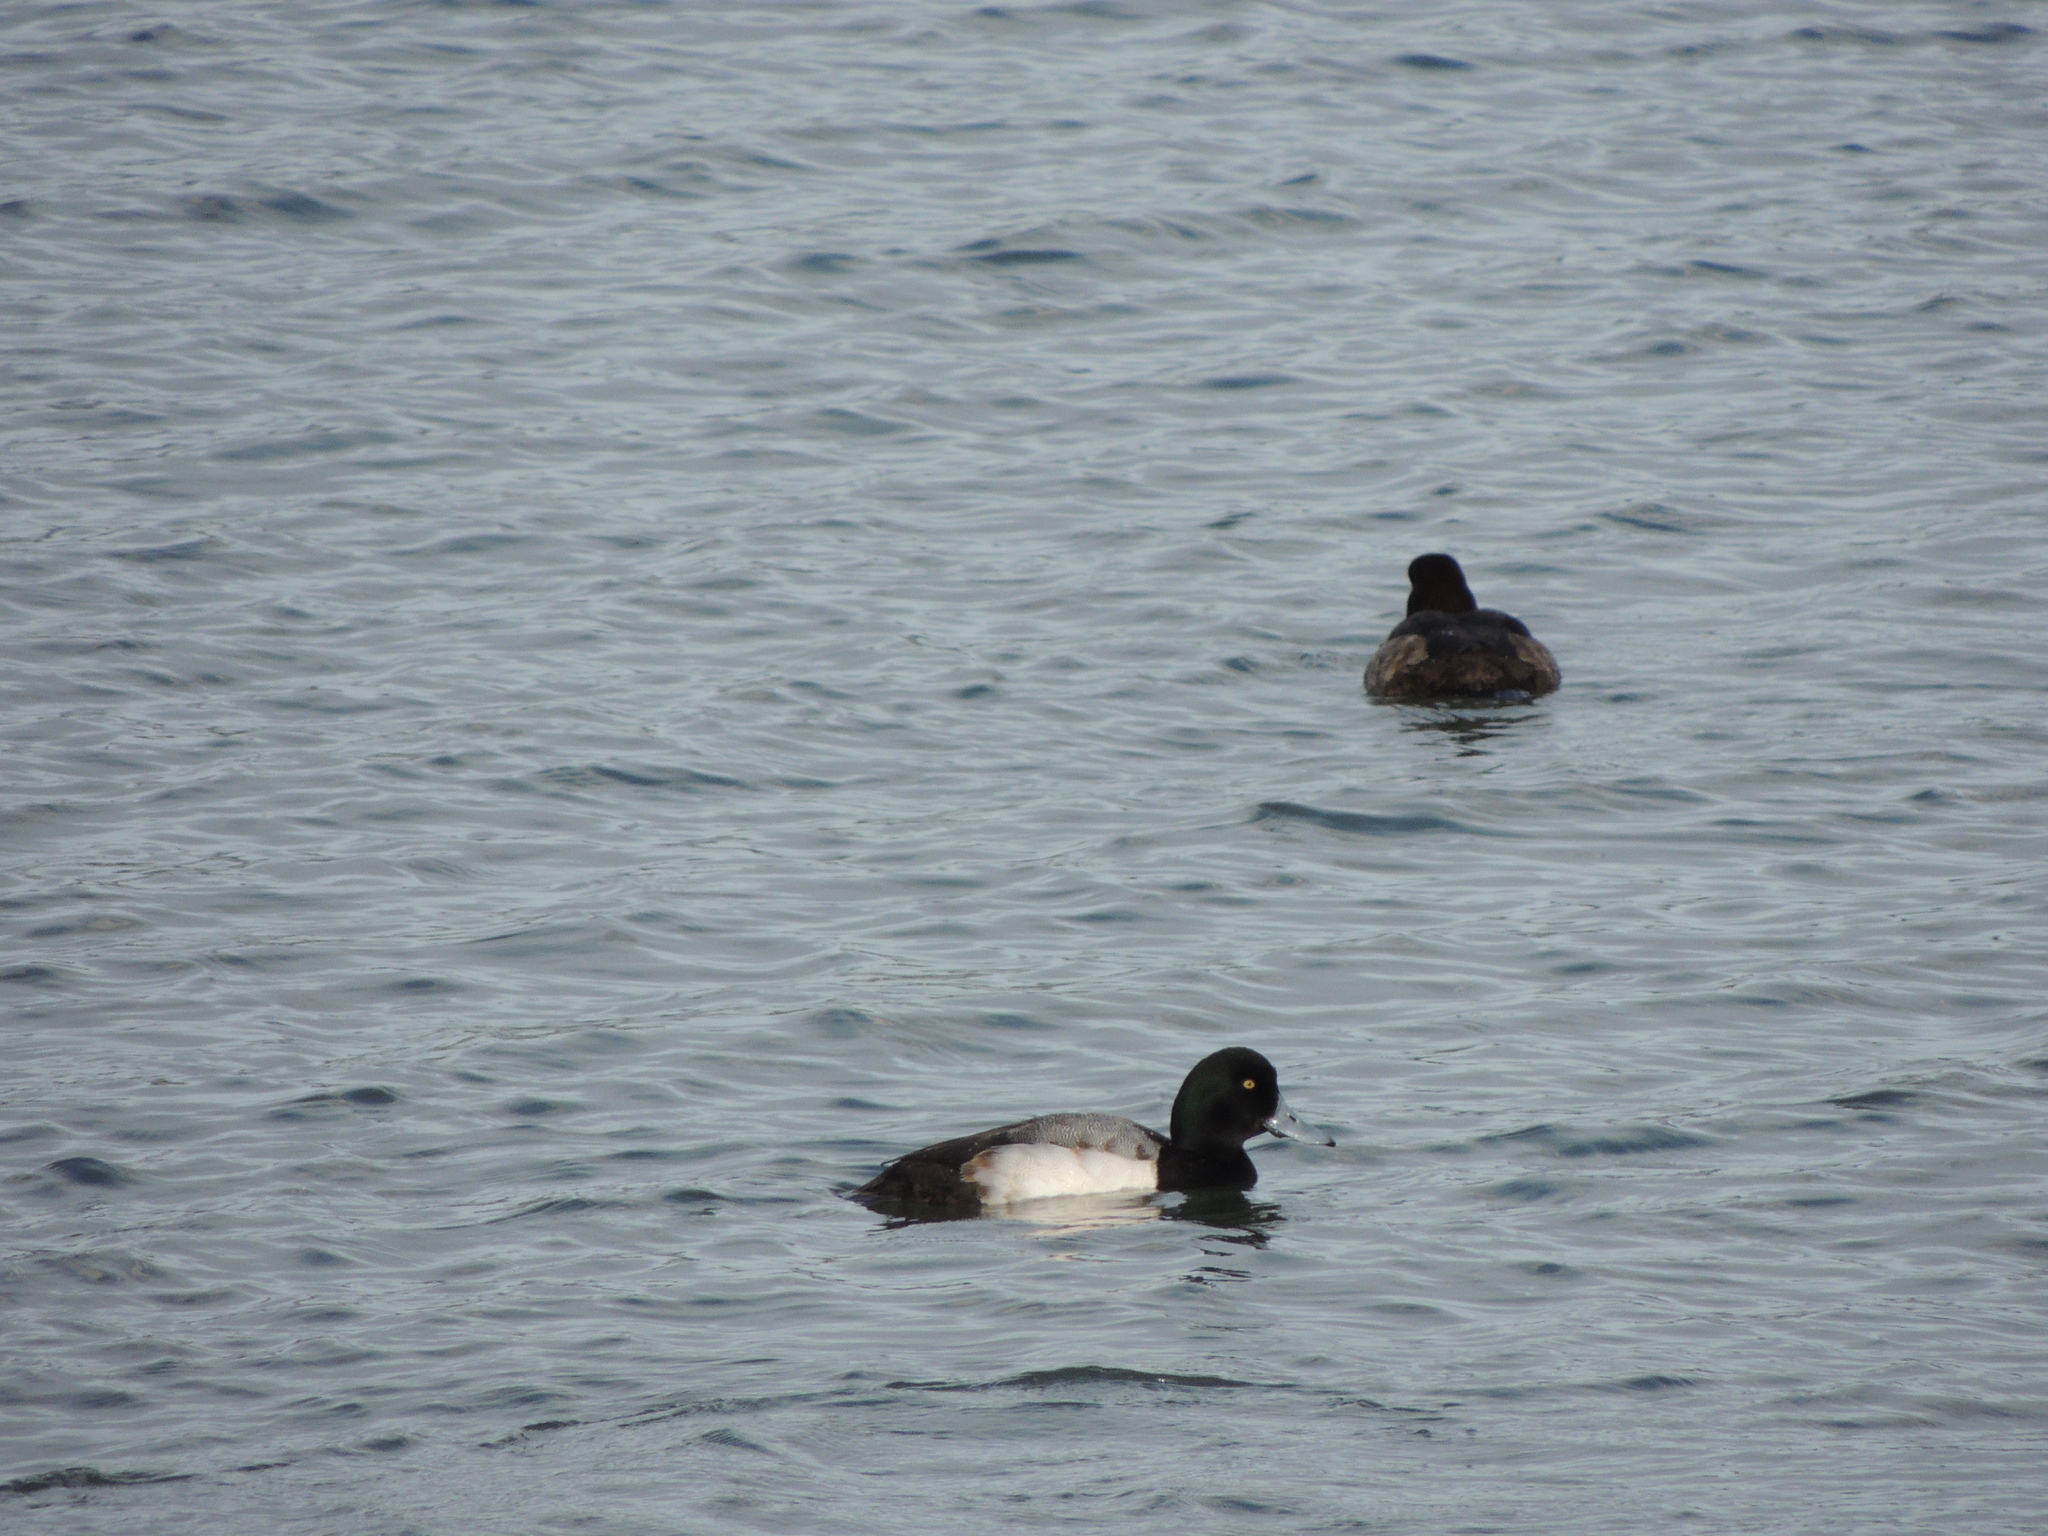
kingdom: Animalia
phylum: Chordata
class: Aves
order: Anseriformes
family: Anatidae
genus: Aythya
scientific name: Aythya marila
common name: Greater scaup
